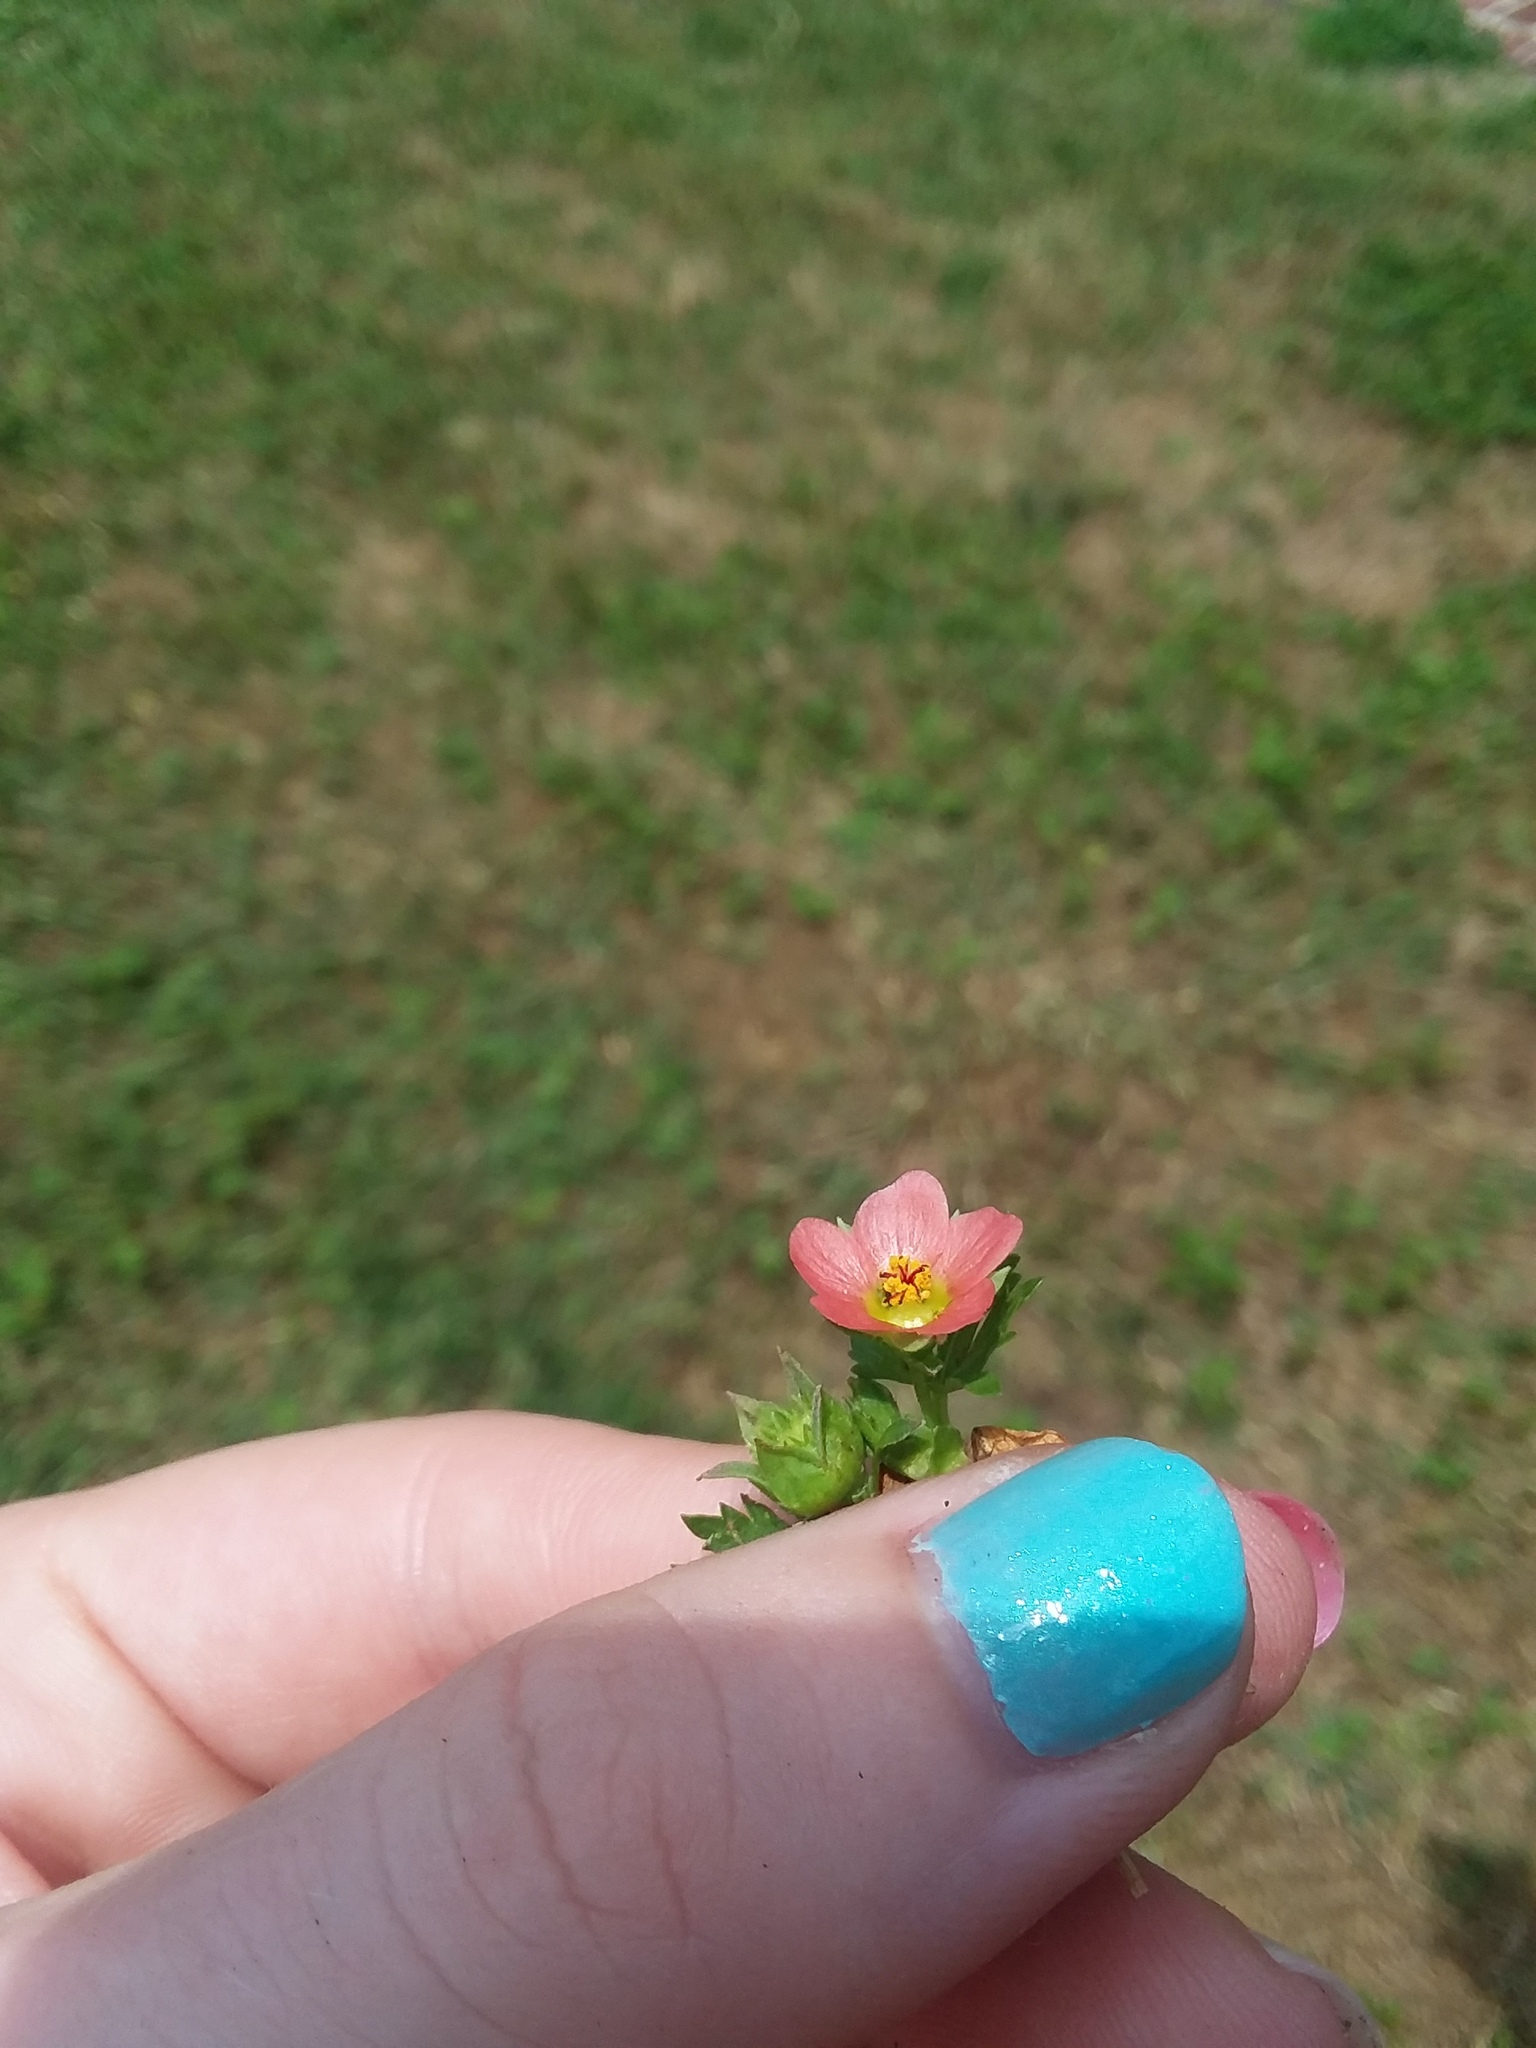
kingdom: Plantae
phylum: Tracheophyta
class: Magnoliopsida
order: Malvales
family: Malvaceae
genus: Modiola
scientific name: Modiola caroliniana
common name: Carolina bristlemallow
